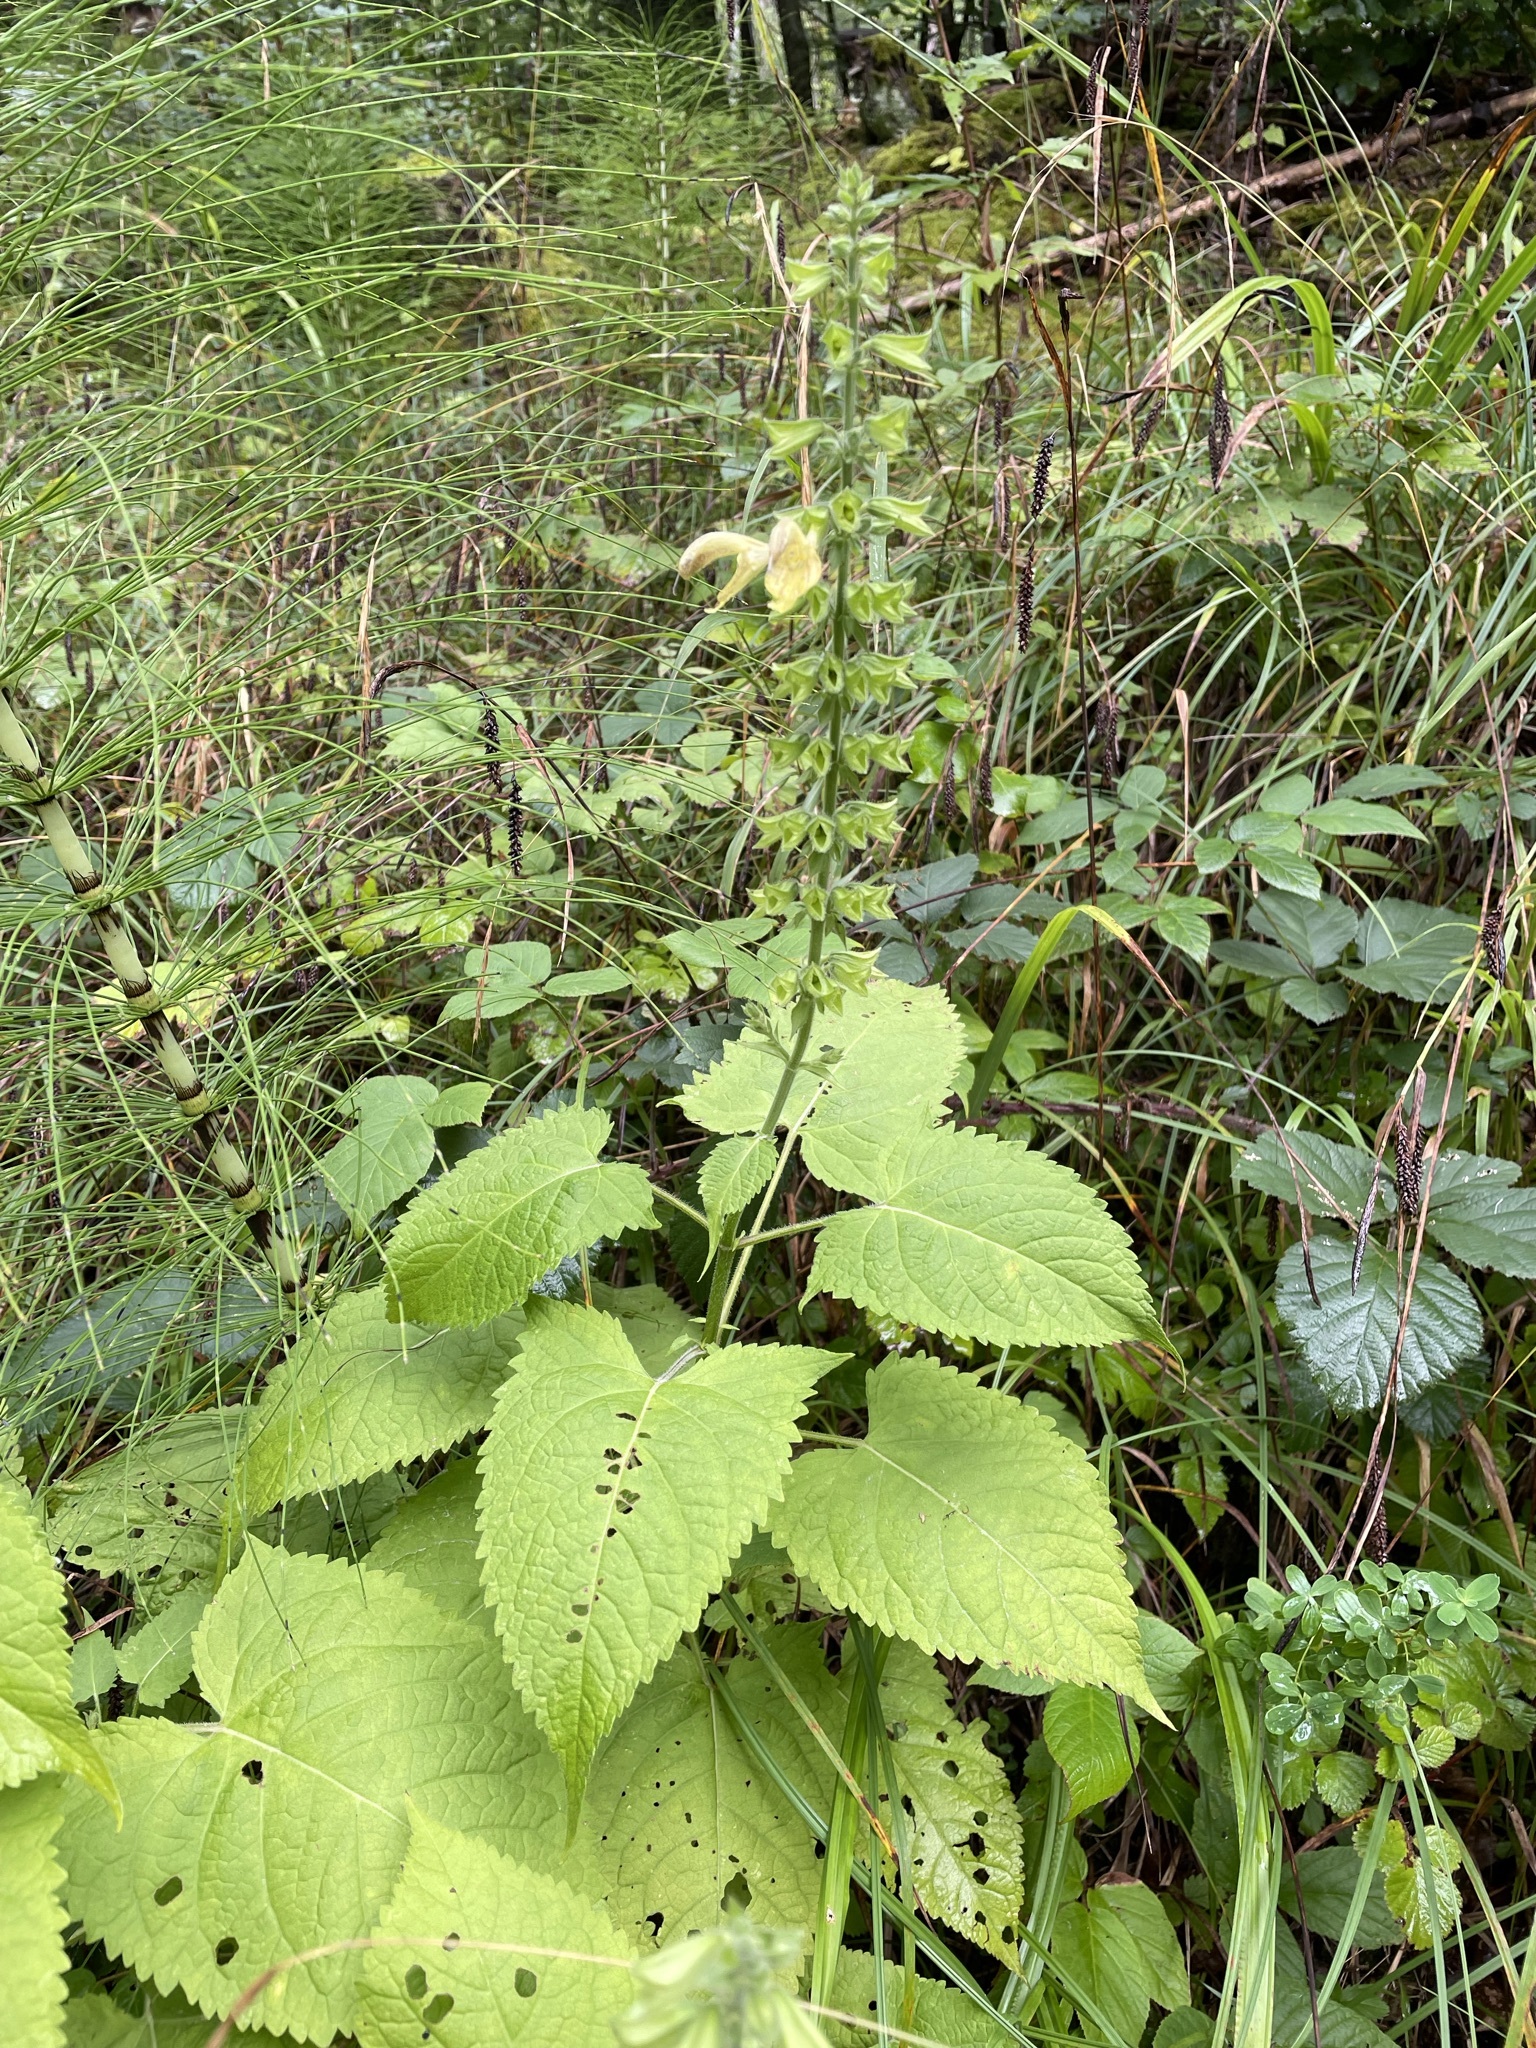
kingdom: Plantae
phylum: Tracheophyta
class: Magnoliopsida
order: Lamiales
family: Lamiaceae
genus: Salvia
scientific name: Salvia glutinosa
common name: Sticky clary
